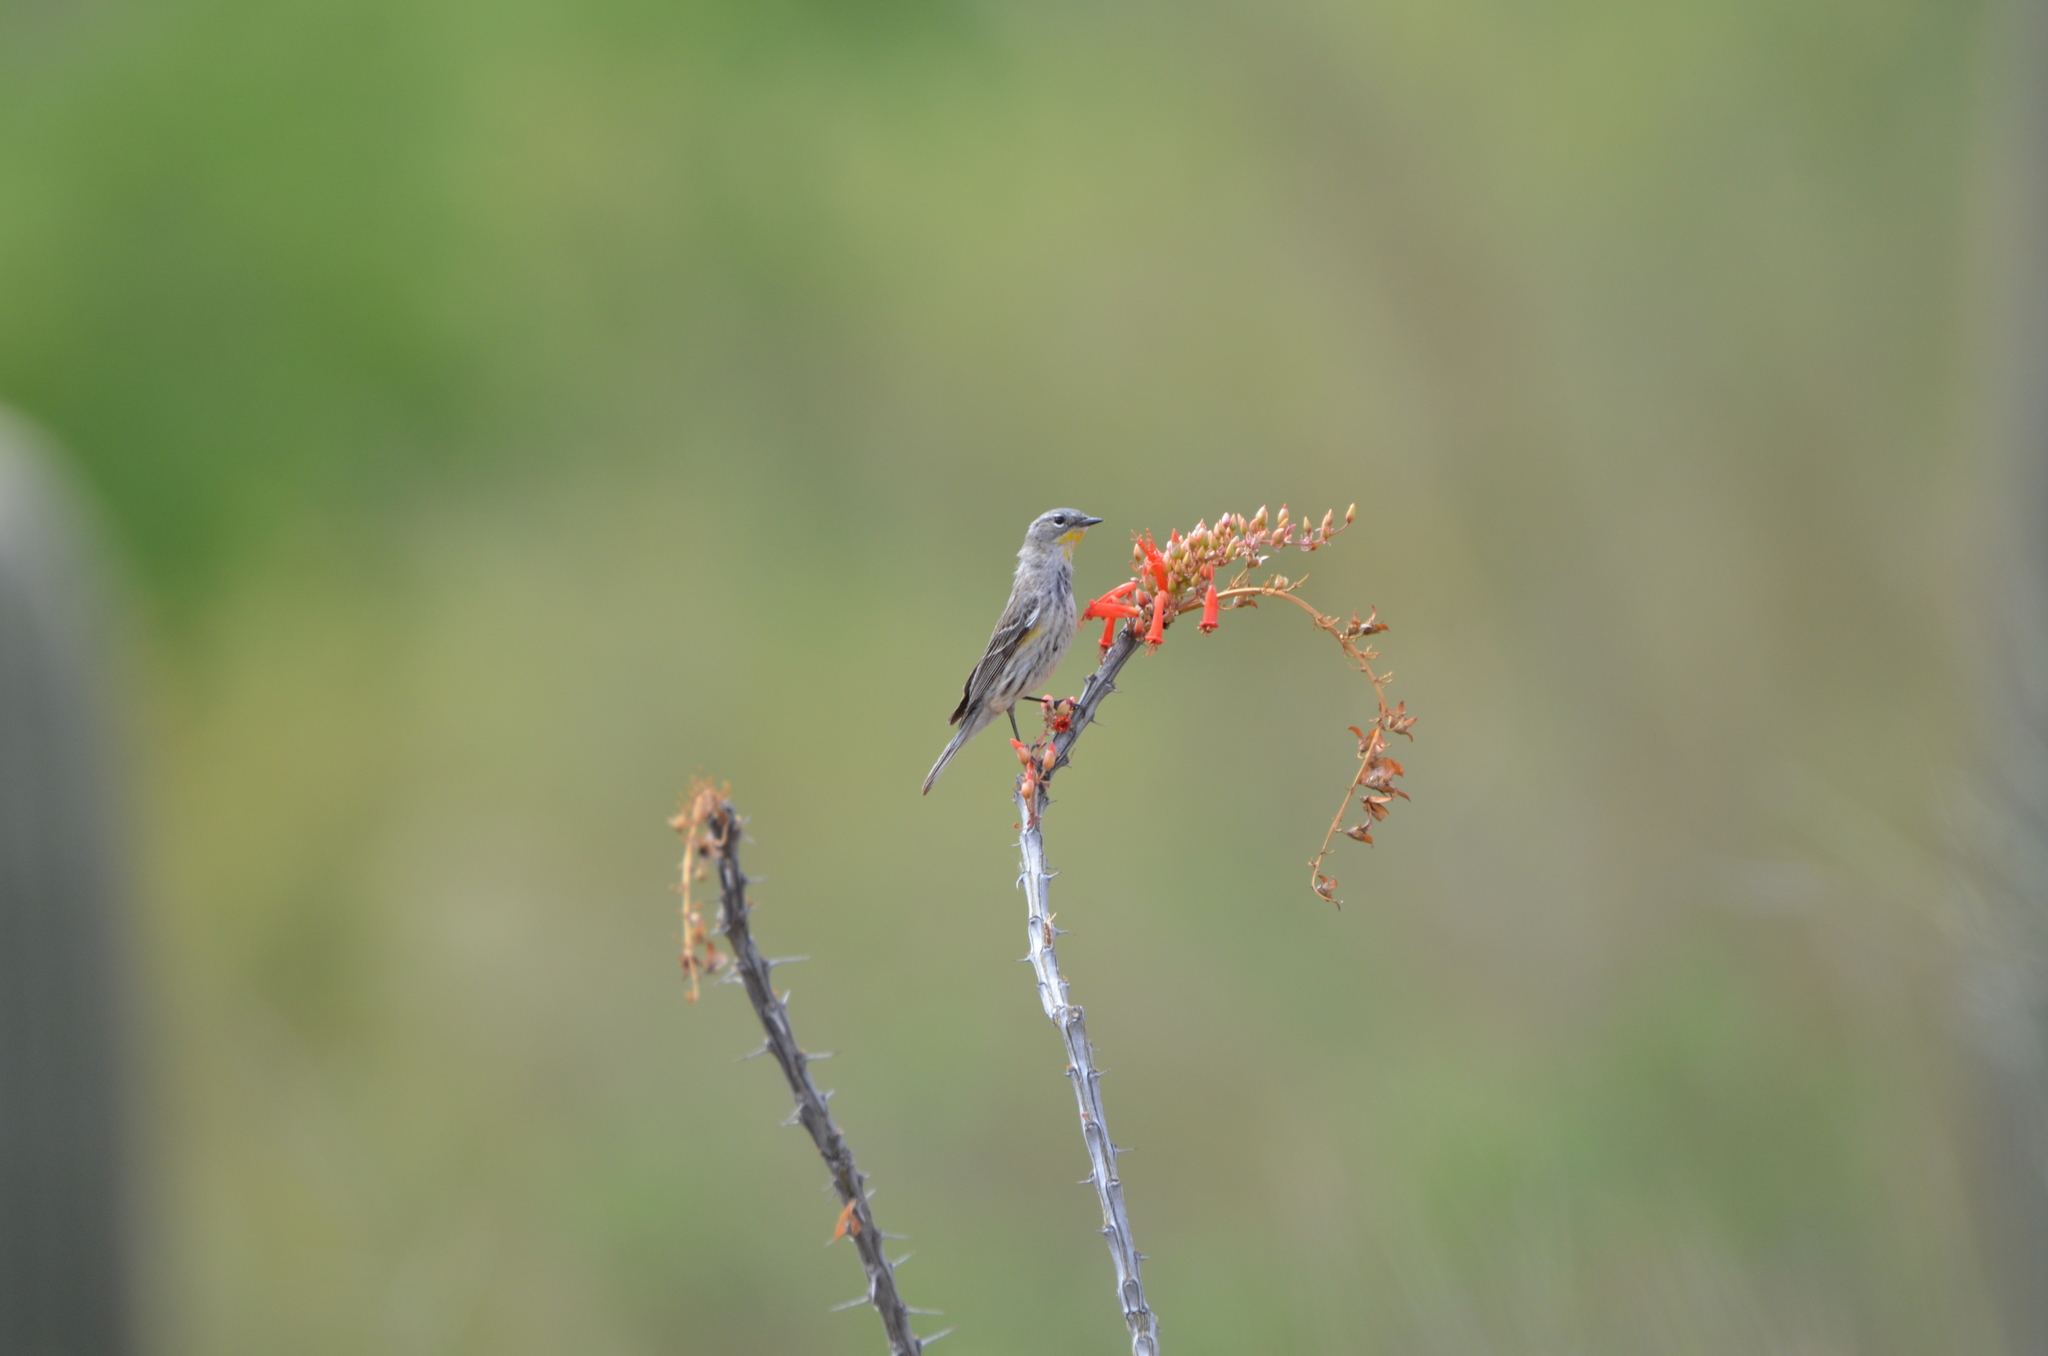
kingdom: Animalia
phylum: Chordata
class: Aves
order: Passeriformes
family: Parulidae
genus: Setophaga
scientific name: Setophaga auduboni
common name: Audubon's warbler
